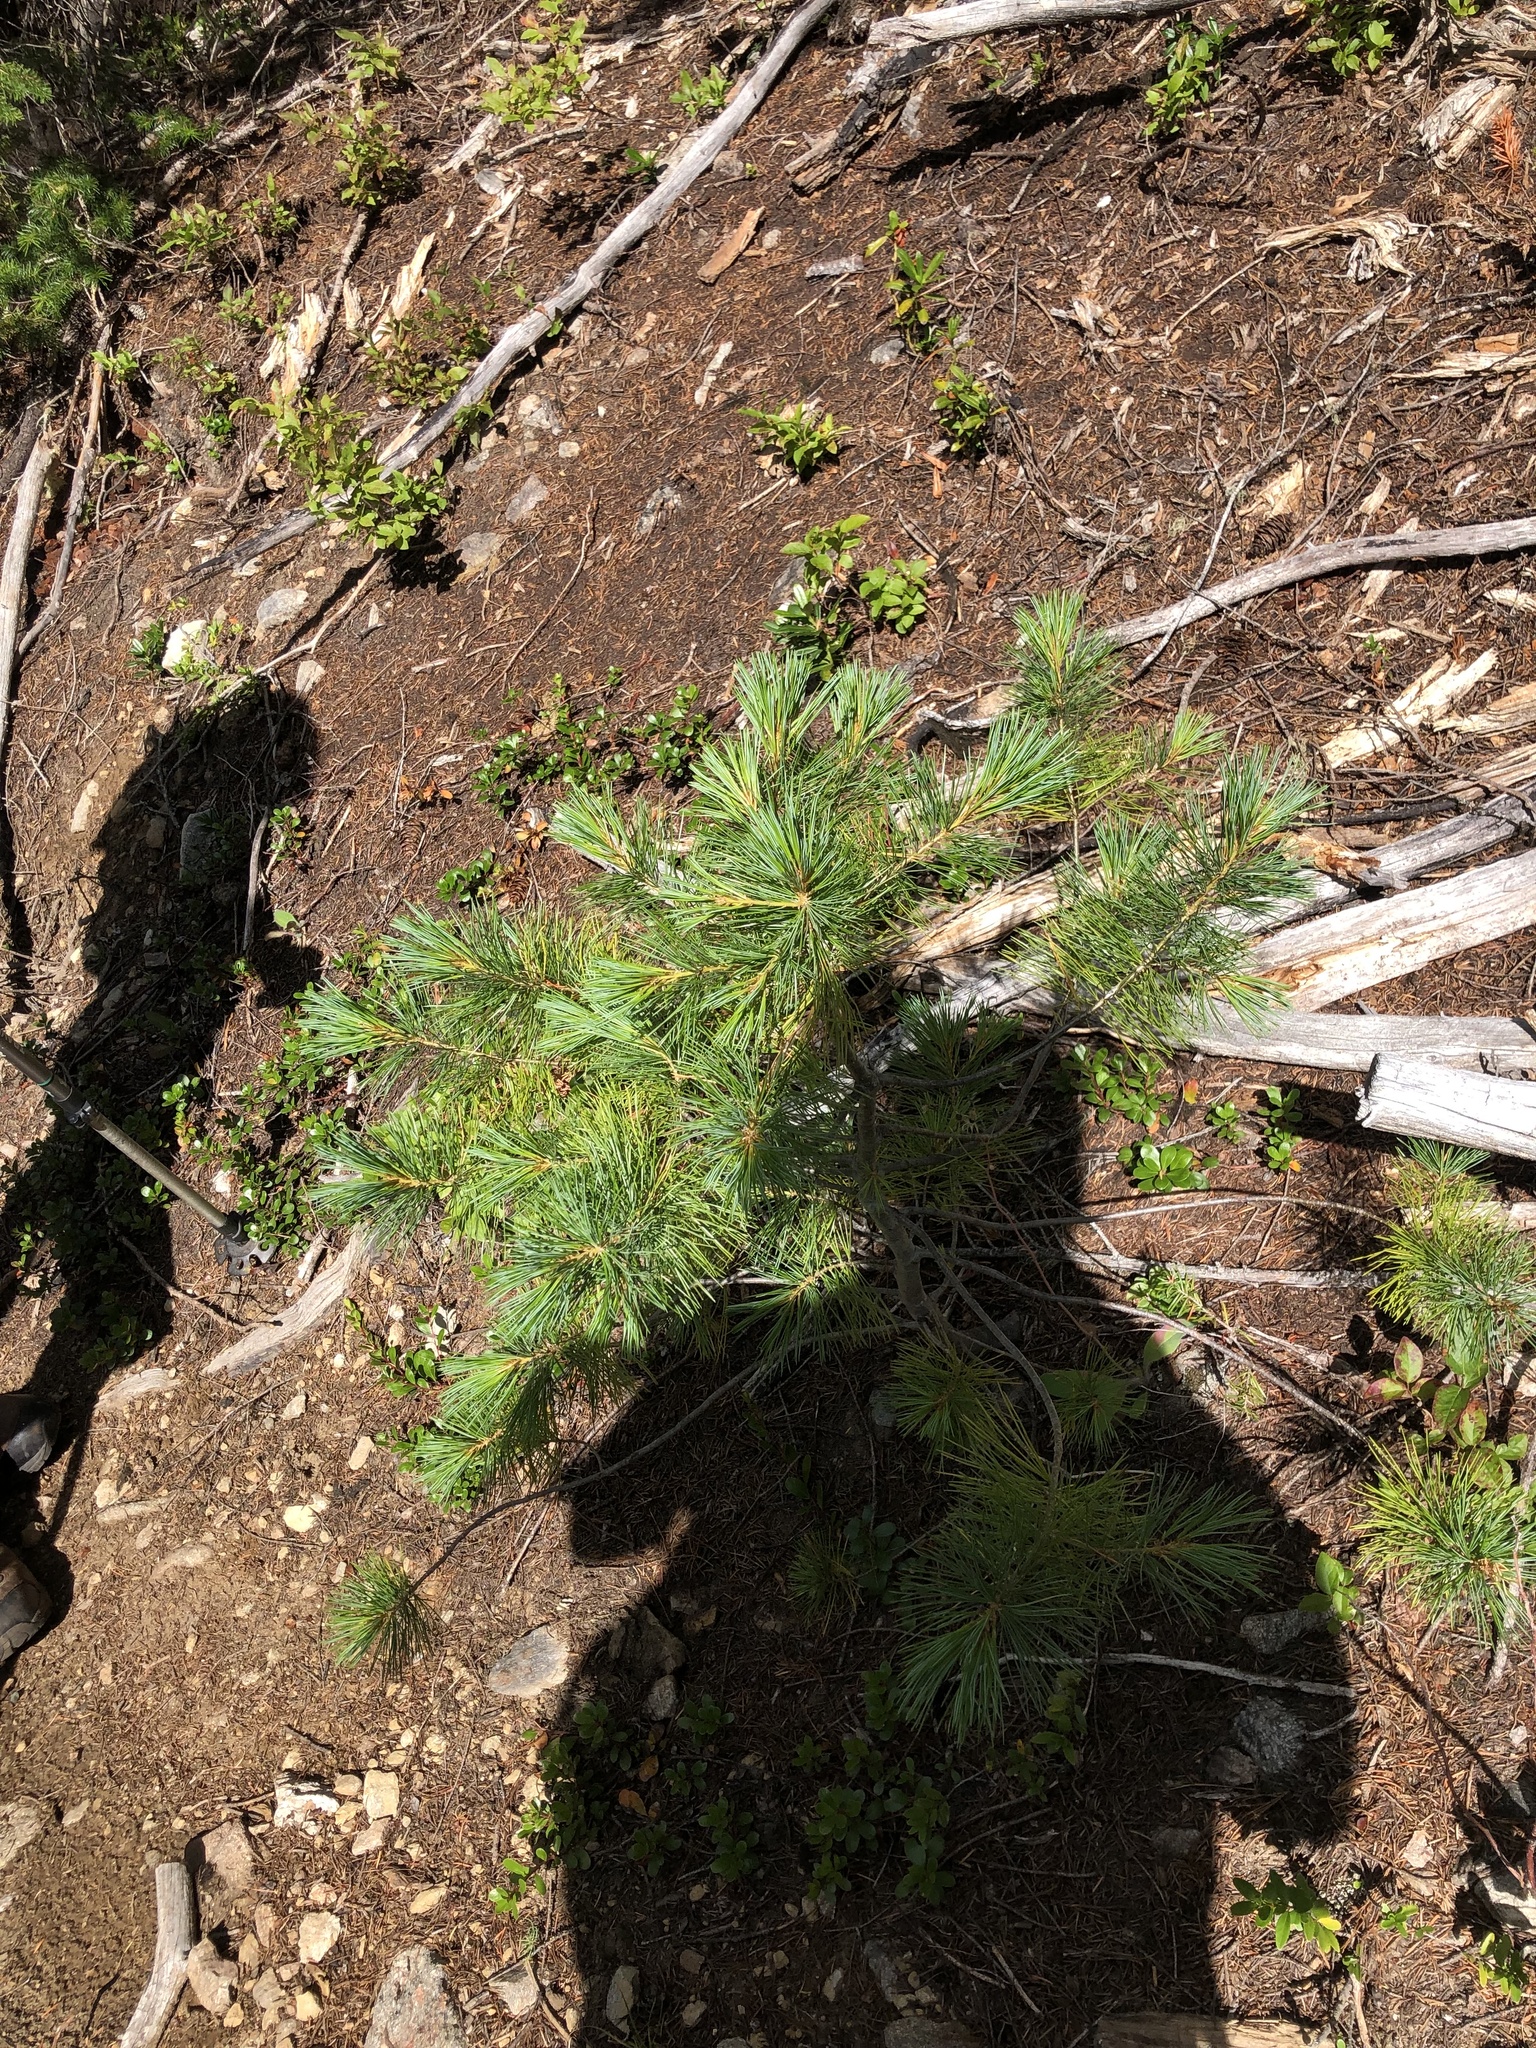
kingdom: Plantae
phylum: Tracheophyta
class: Pinopsida
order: Pinales
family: Pinaceae
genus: Pinus
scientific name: Pinus monticola
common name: Western white pine
